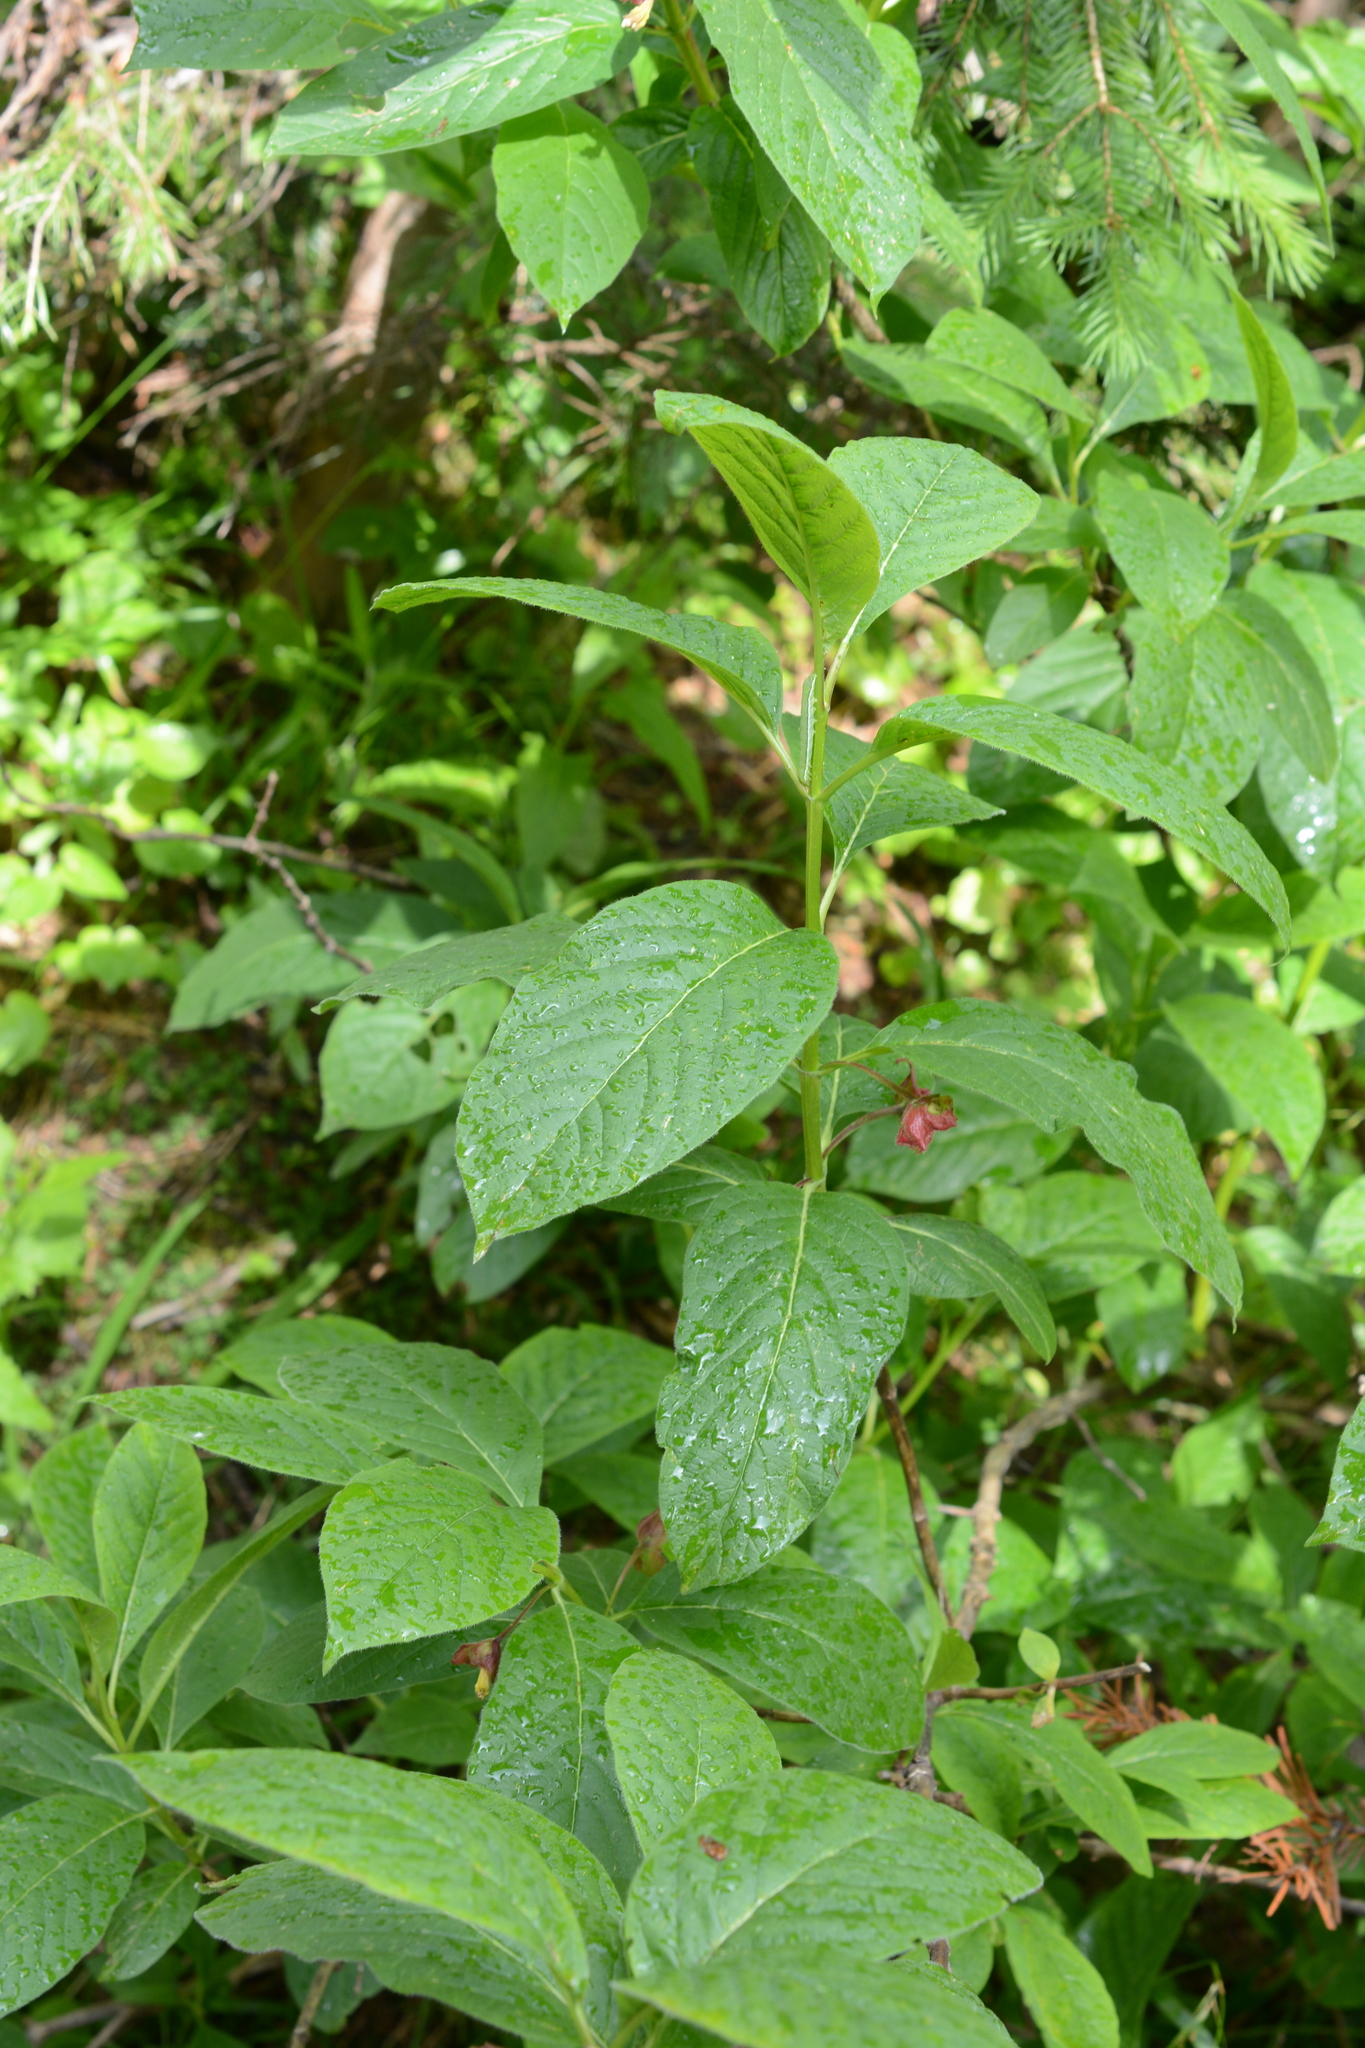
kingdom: Plantae
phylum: Tracheophyta
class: Magnoliopsida
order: Dipsacales
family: Caprifoliaceae
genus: Lonicera
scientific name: Lonicera involucrata
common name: Californian honeysuckle
